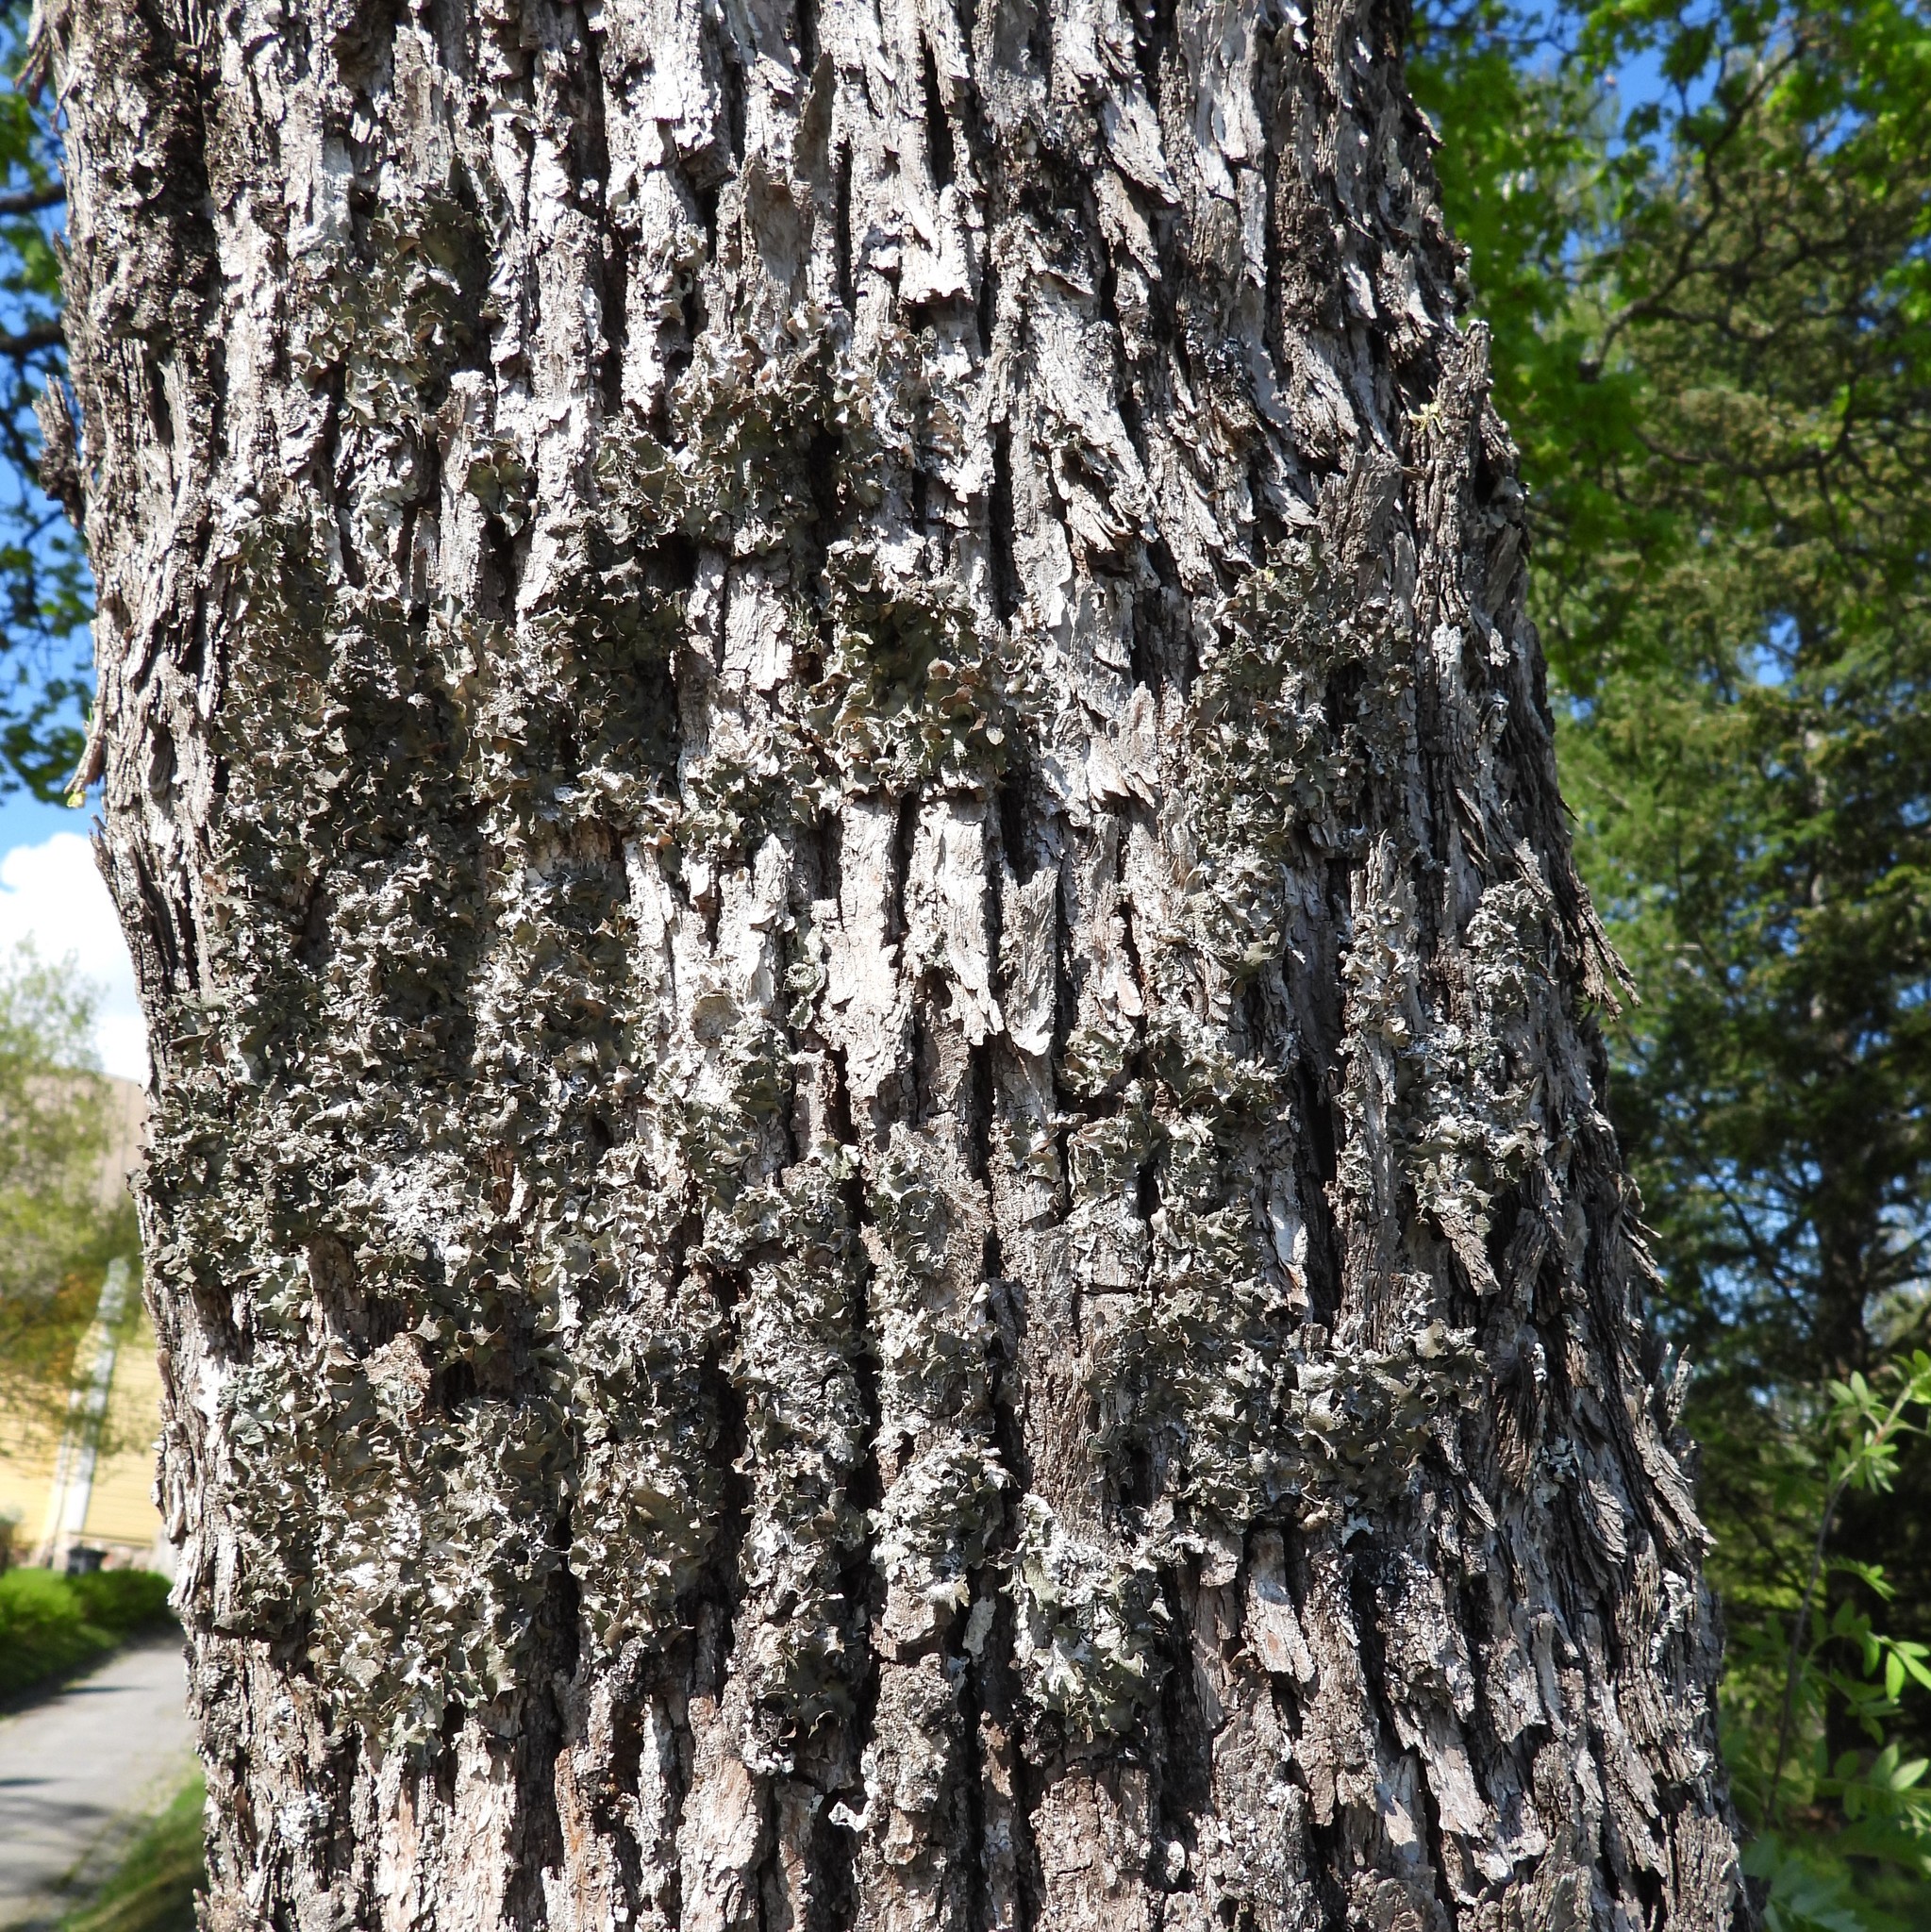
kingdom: Fungi
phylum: Ascomycota
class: Lecanoromycetes
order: Lecanorales
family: Parmeliaceae
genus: Pleurosticta
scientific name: Pleurosticta acetabulum
